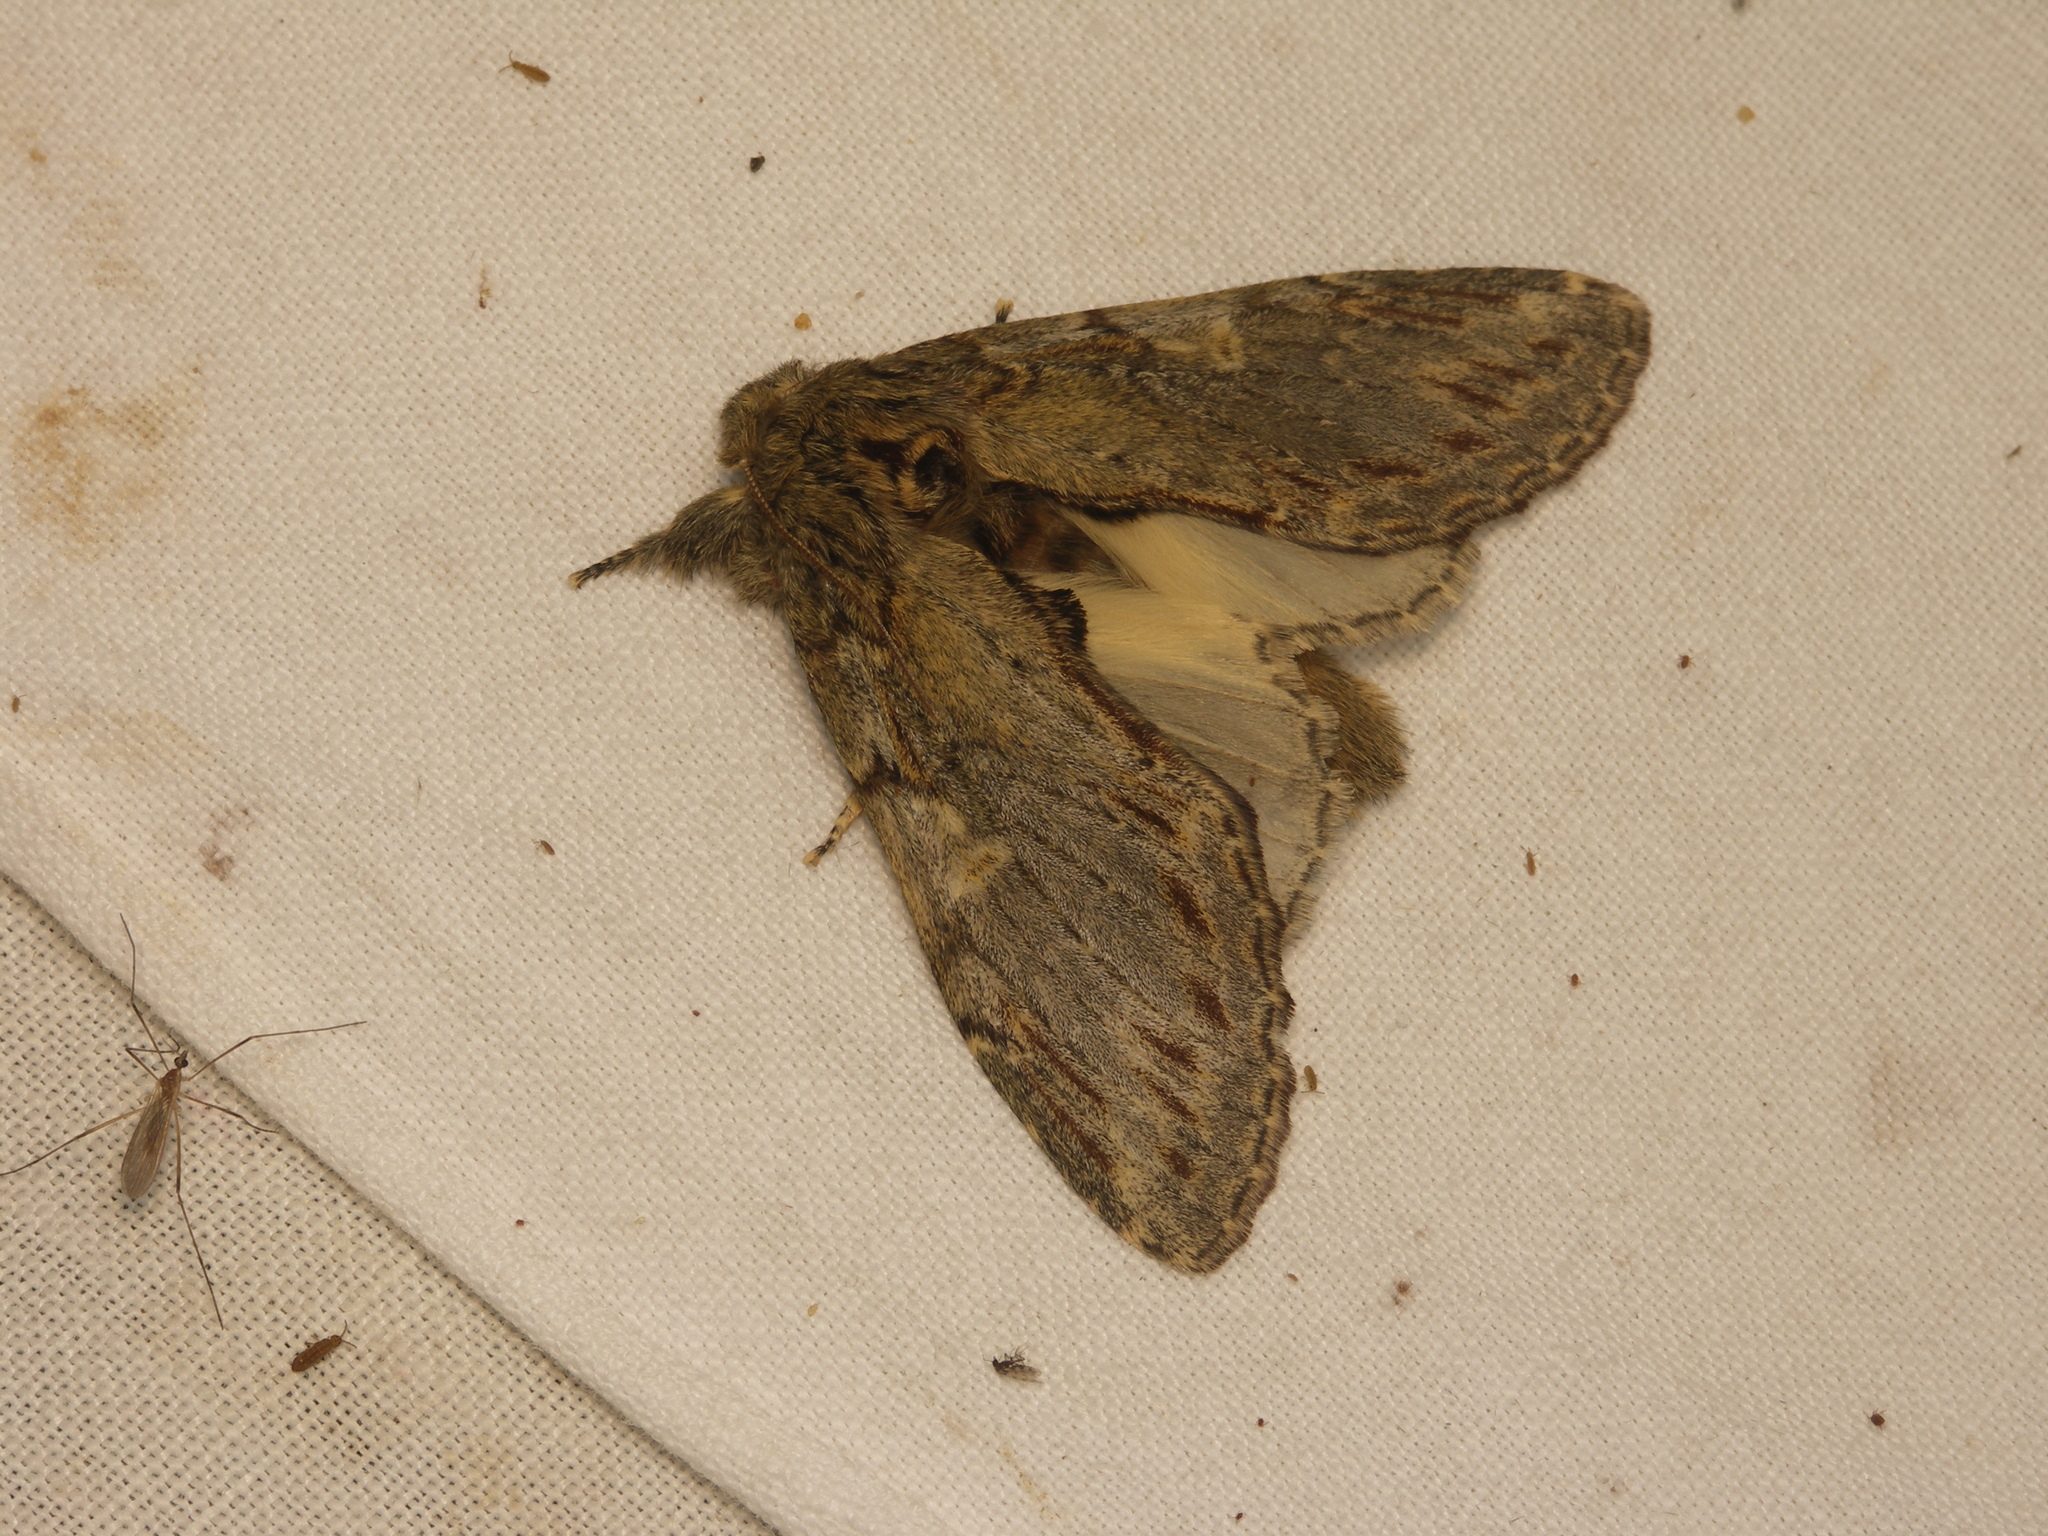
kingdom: Animalia
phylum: Arthropoda
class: Insecta
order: Lepidoptera
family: Notodontidae
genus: Peridea
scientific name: Peridea anceps
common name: Great prominent
